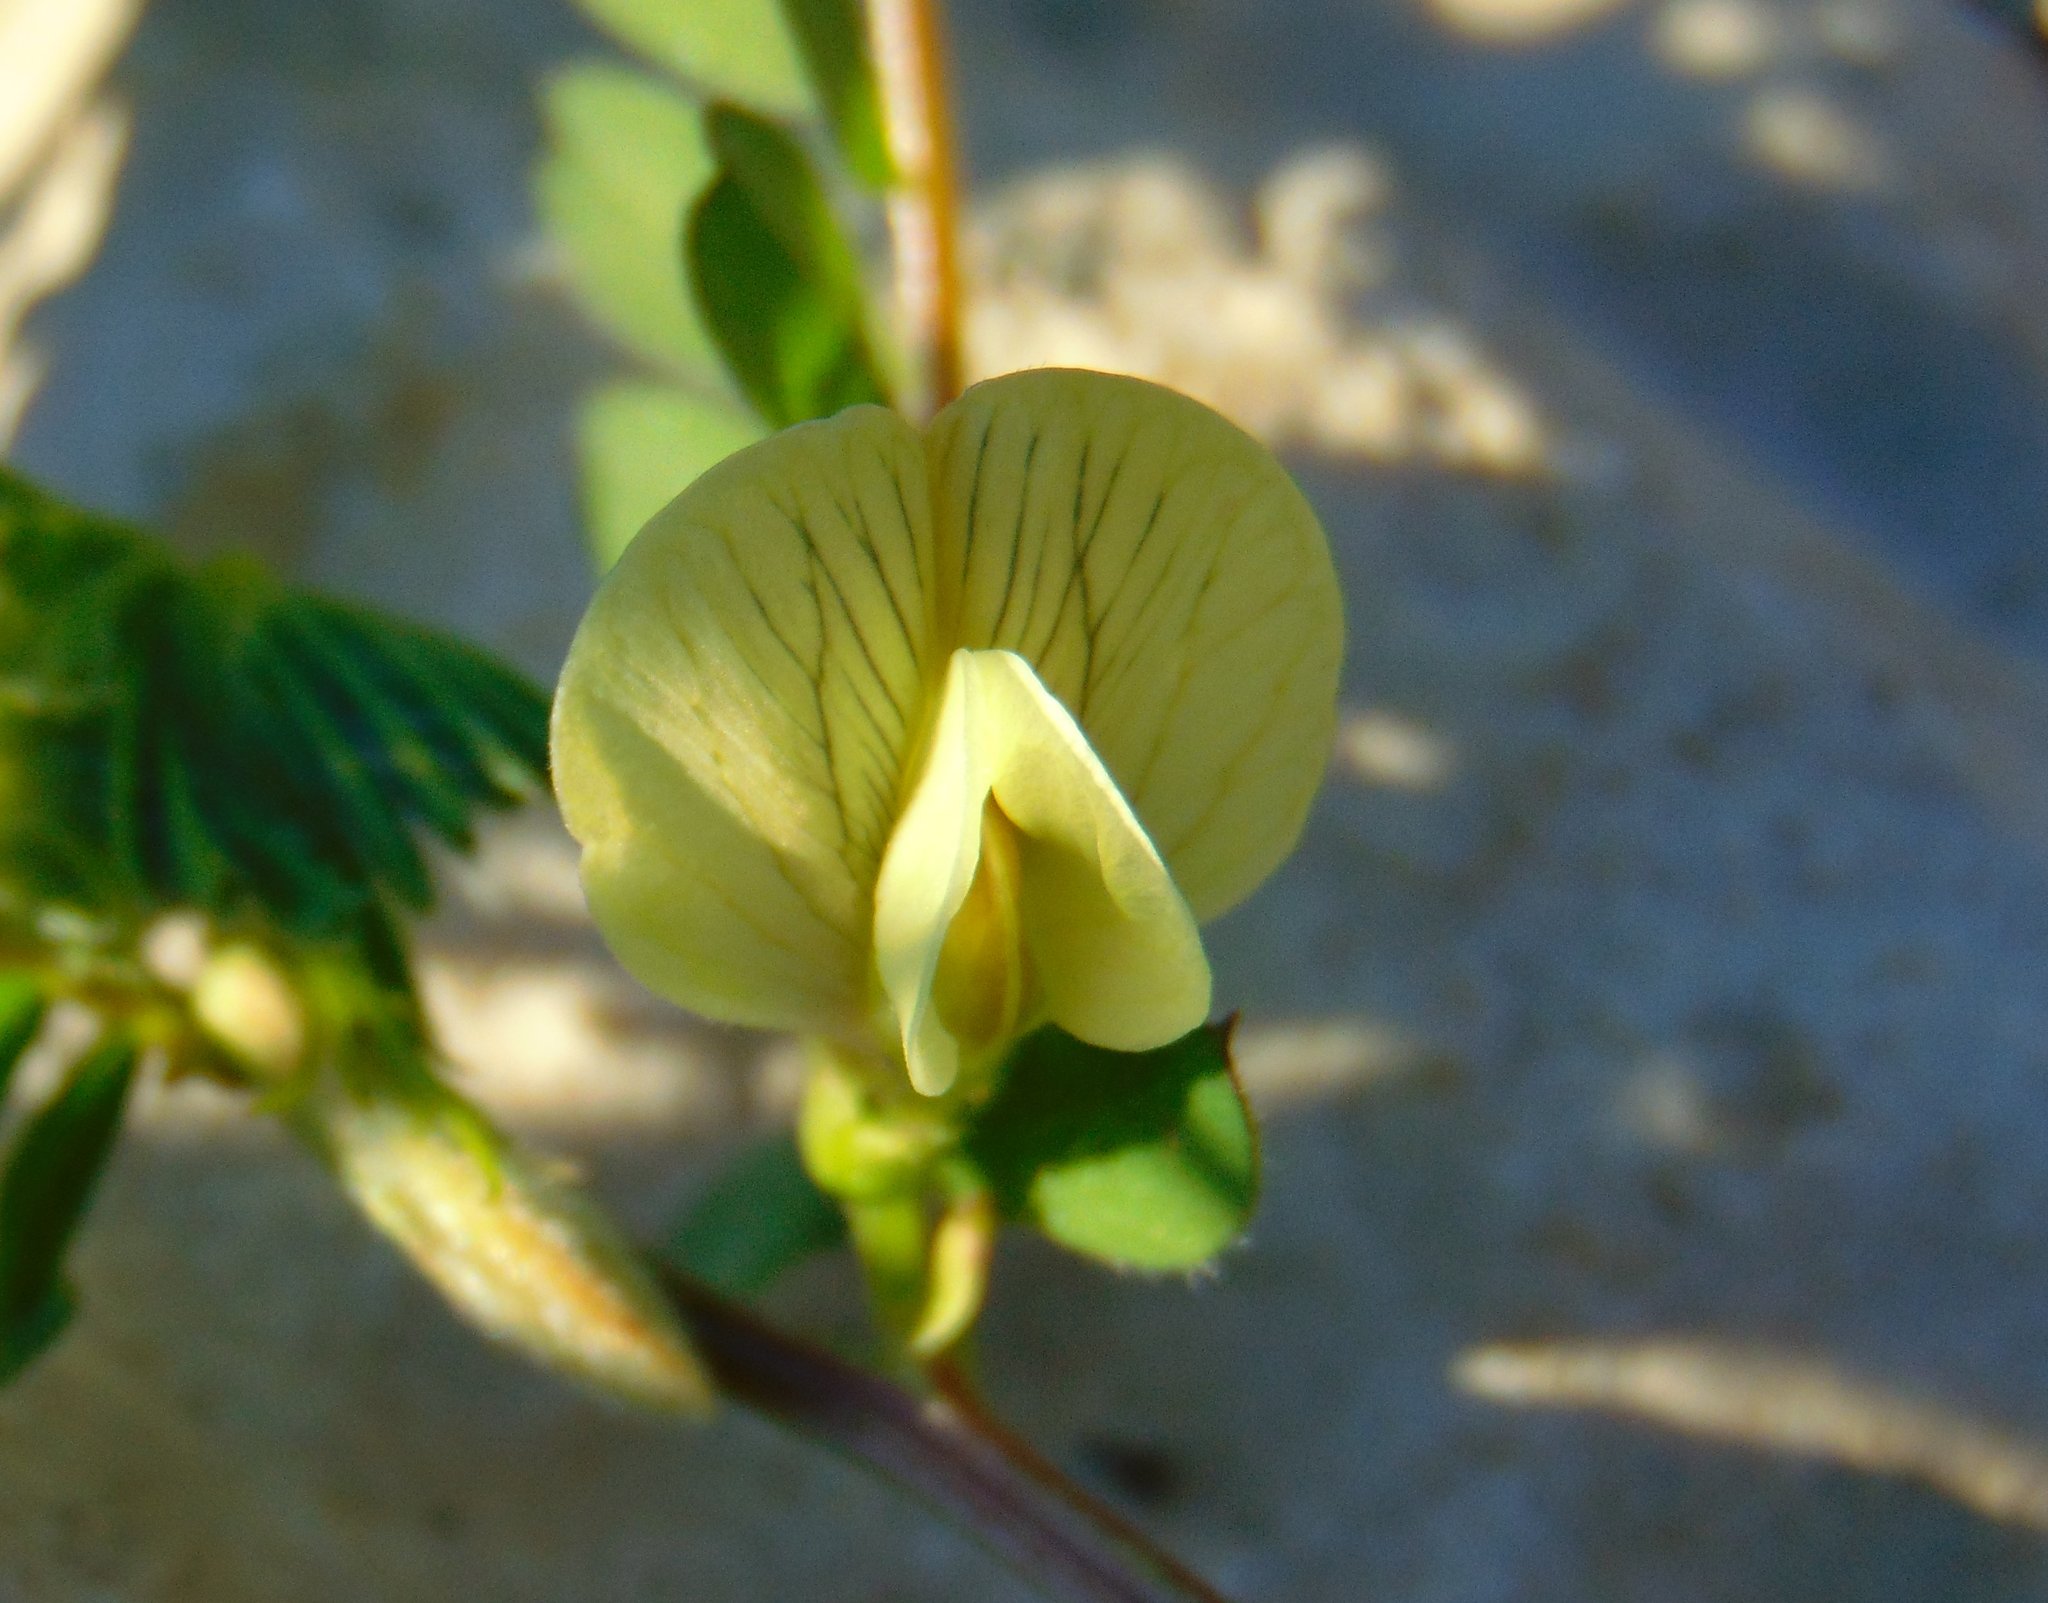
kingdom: Plantae
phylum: Tracheophyta
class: Magnoliopsida
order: Fabales
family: Fabaceae
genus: Vicia
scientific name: Vicia hybrida
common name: Hairy yellow vetch
